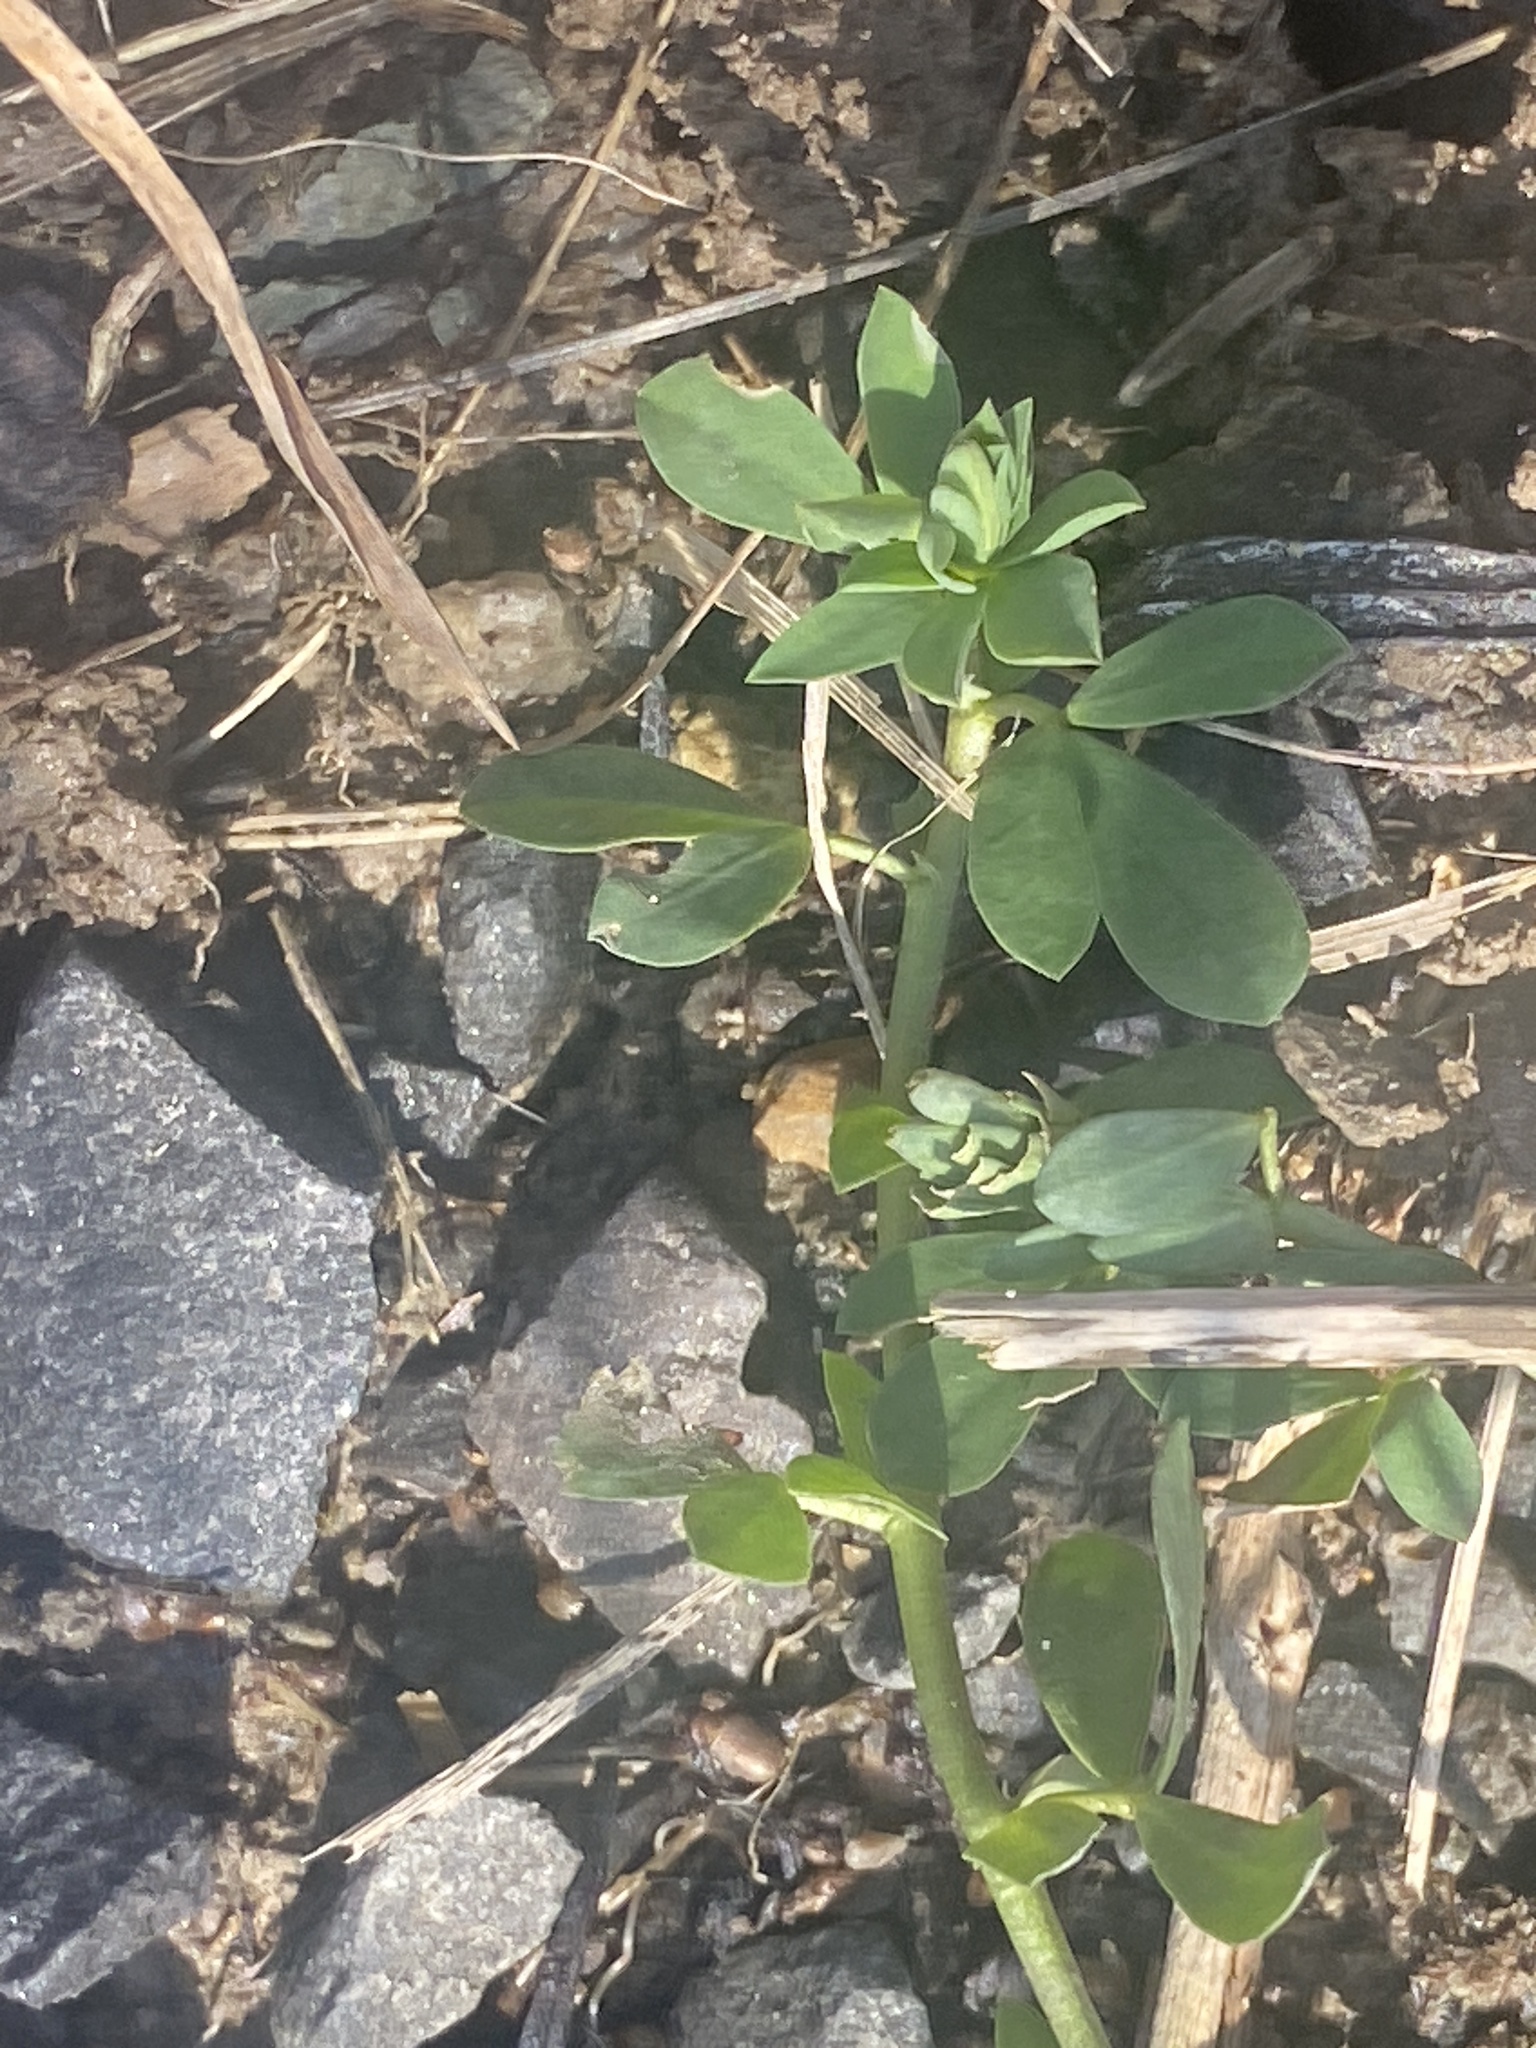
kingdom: Plantae
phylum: Tracheophyta
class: Magnoliopsida
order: Fabales
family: Fabaceae
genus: Lotus
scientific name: Lotus corniculatus
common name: Common bird's-foot-trefoil
